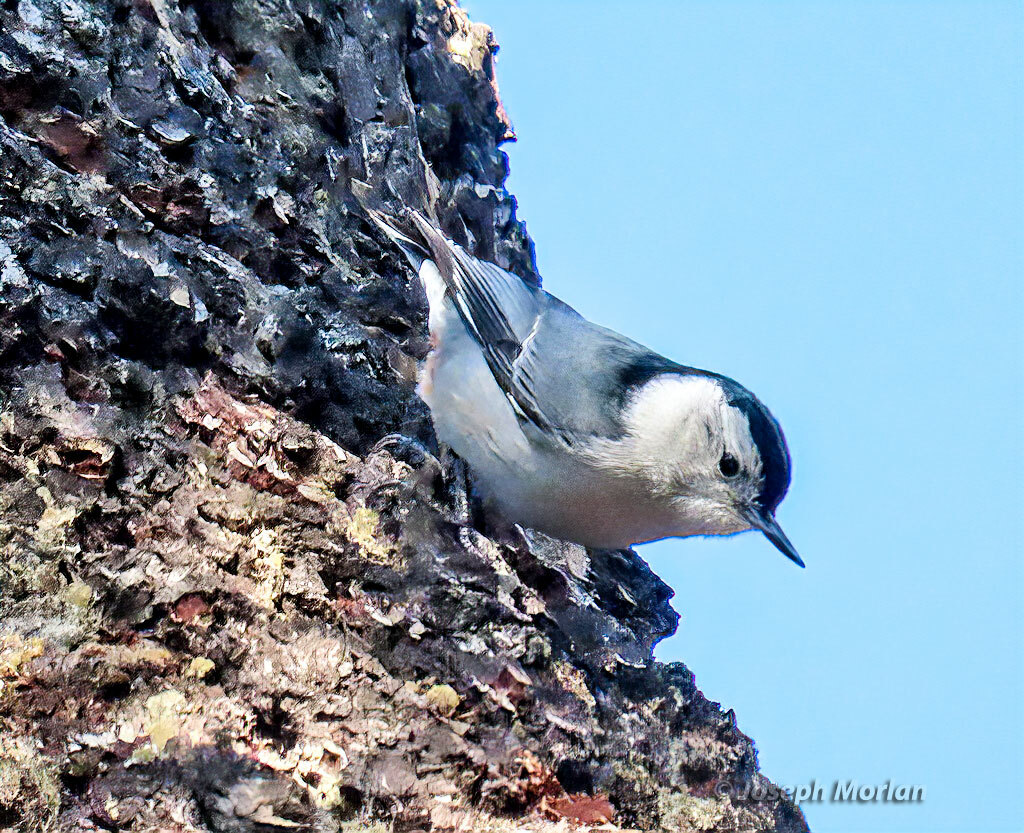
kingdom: Animalia
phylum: Chordata
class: Aves
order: Passeriformes
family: Sittidae
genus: Sitta
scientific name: Sitta carolinensis
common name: White-breasted nuthatch
